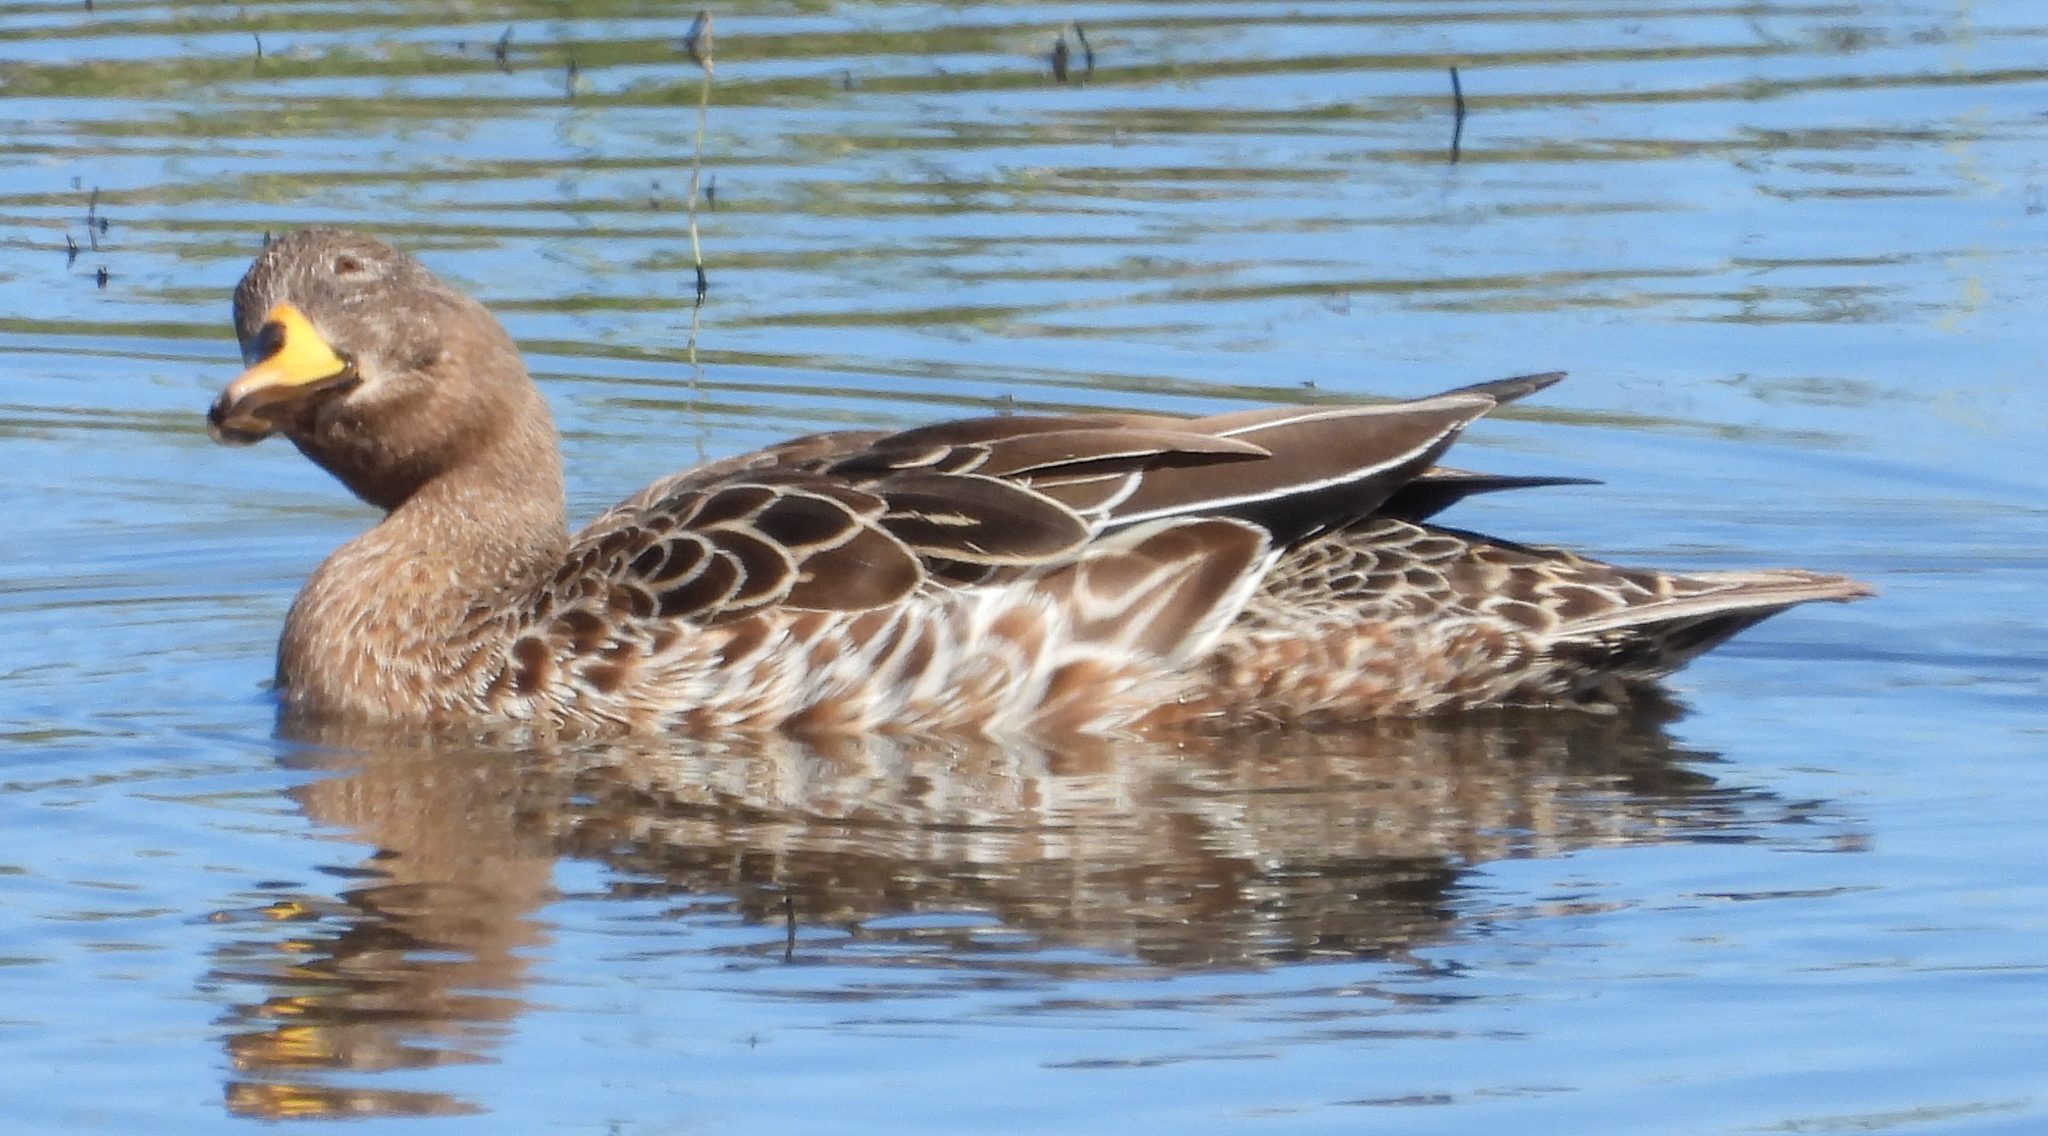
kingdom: Animalia
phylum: Chordata
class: Aves
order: Anseriformes
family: Anatidae
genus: Anas
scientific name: Anas undulata
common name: Yellow-billed duck
